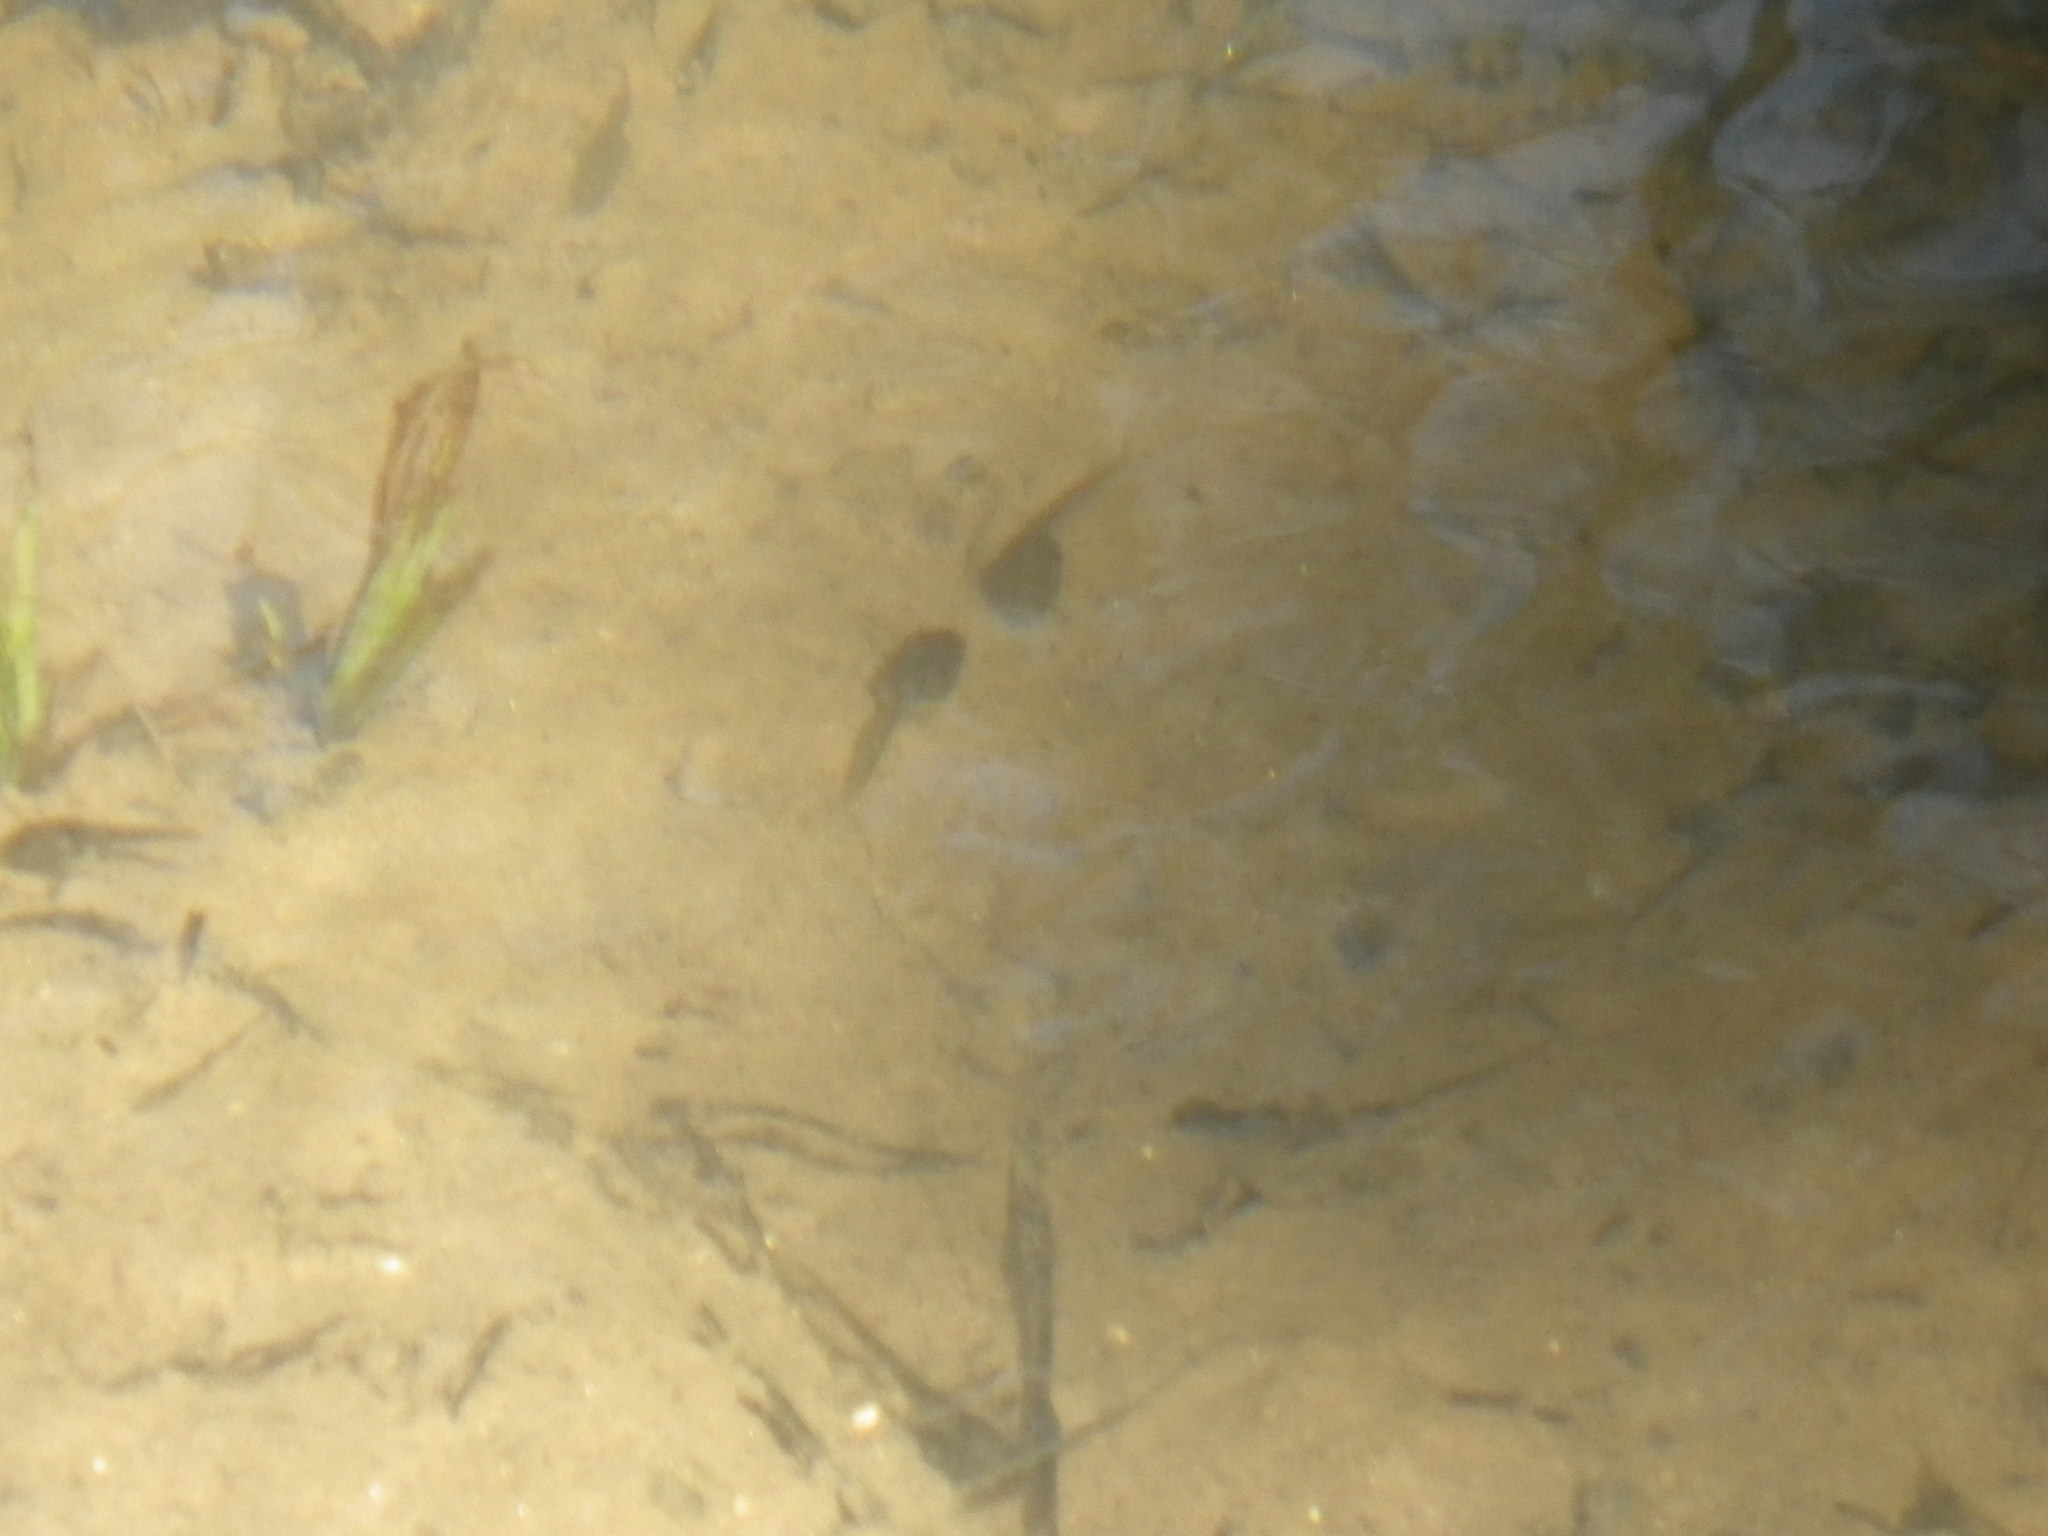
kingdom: Animalia
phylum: Chordata
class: Amphibia
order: Anura
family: Ranidae
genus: Lithobates
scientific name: Lithobates catesbeianus
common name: American bullfrog
